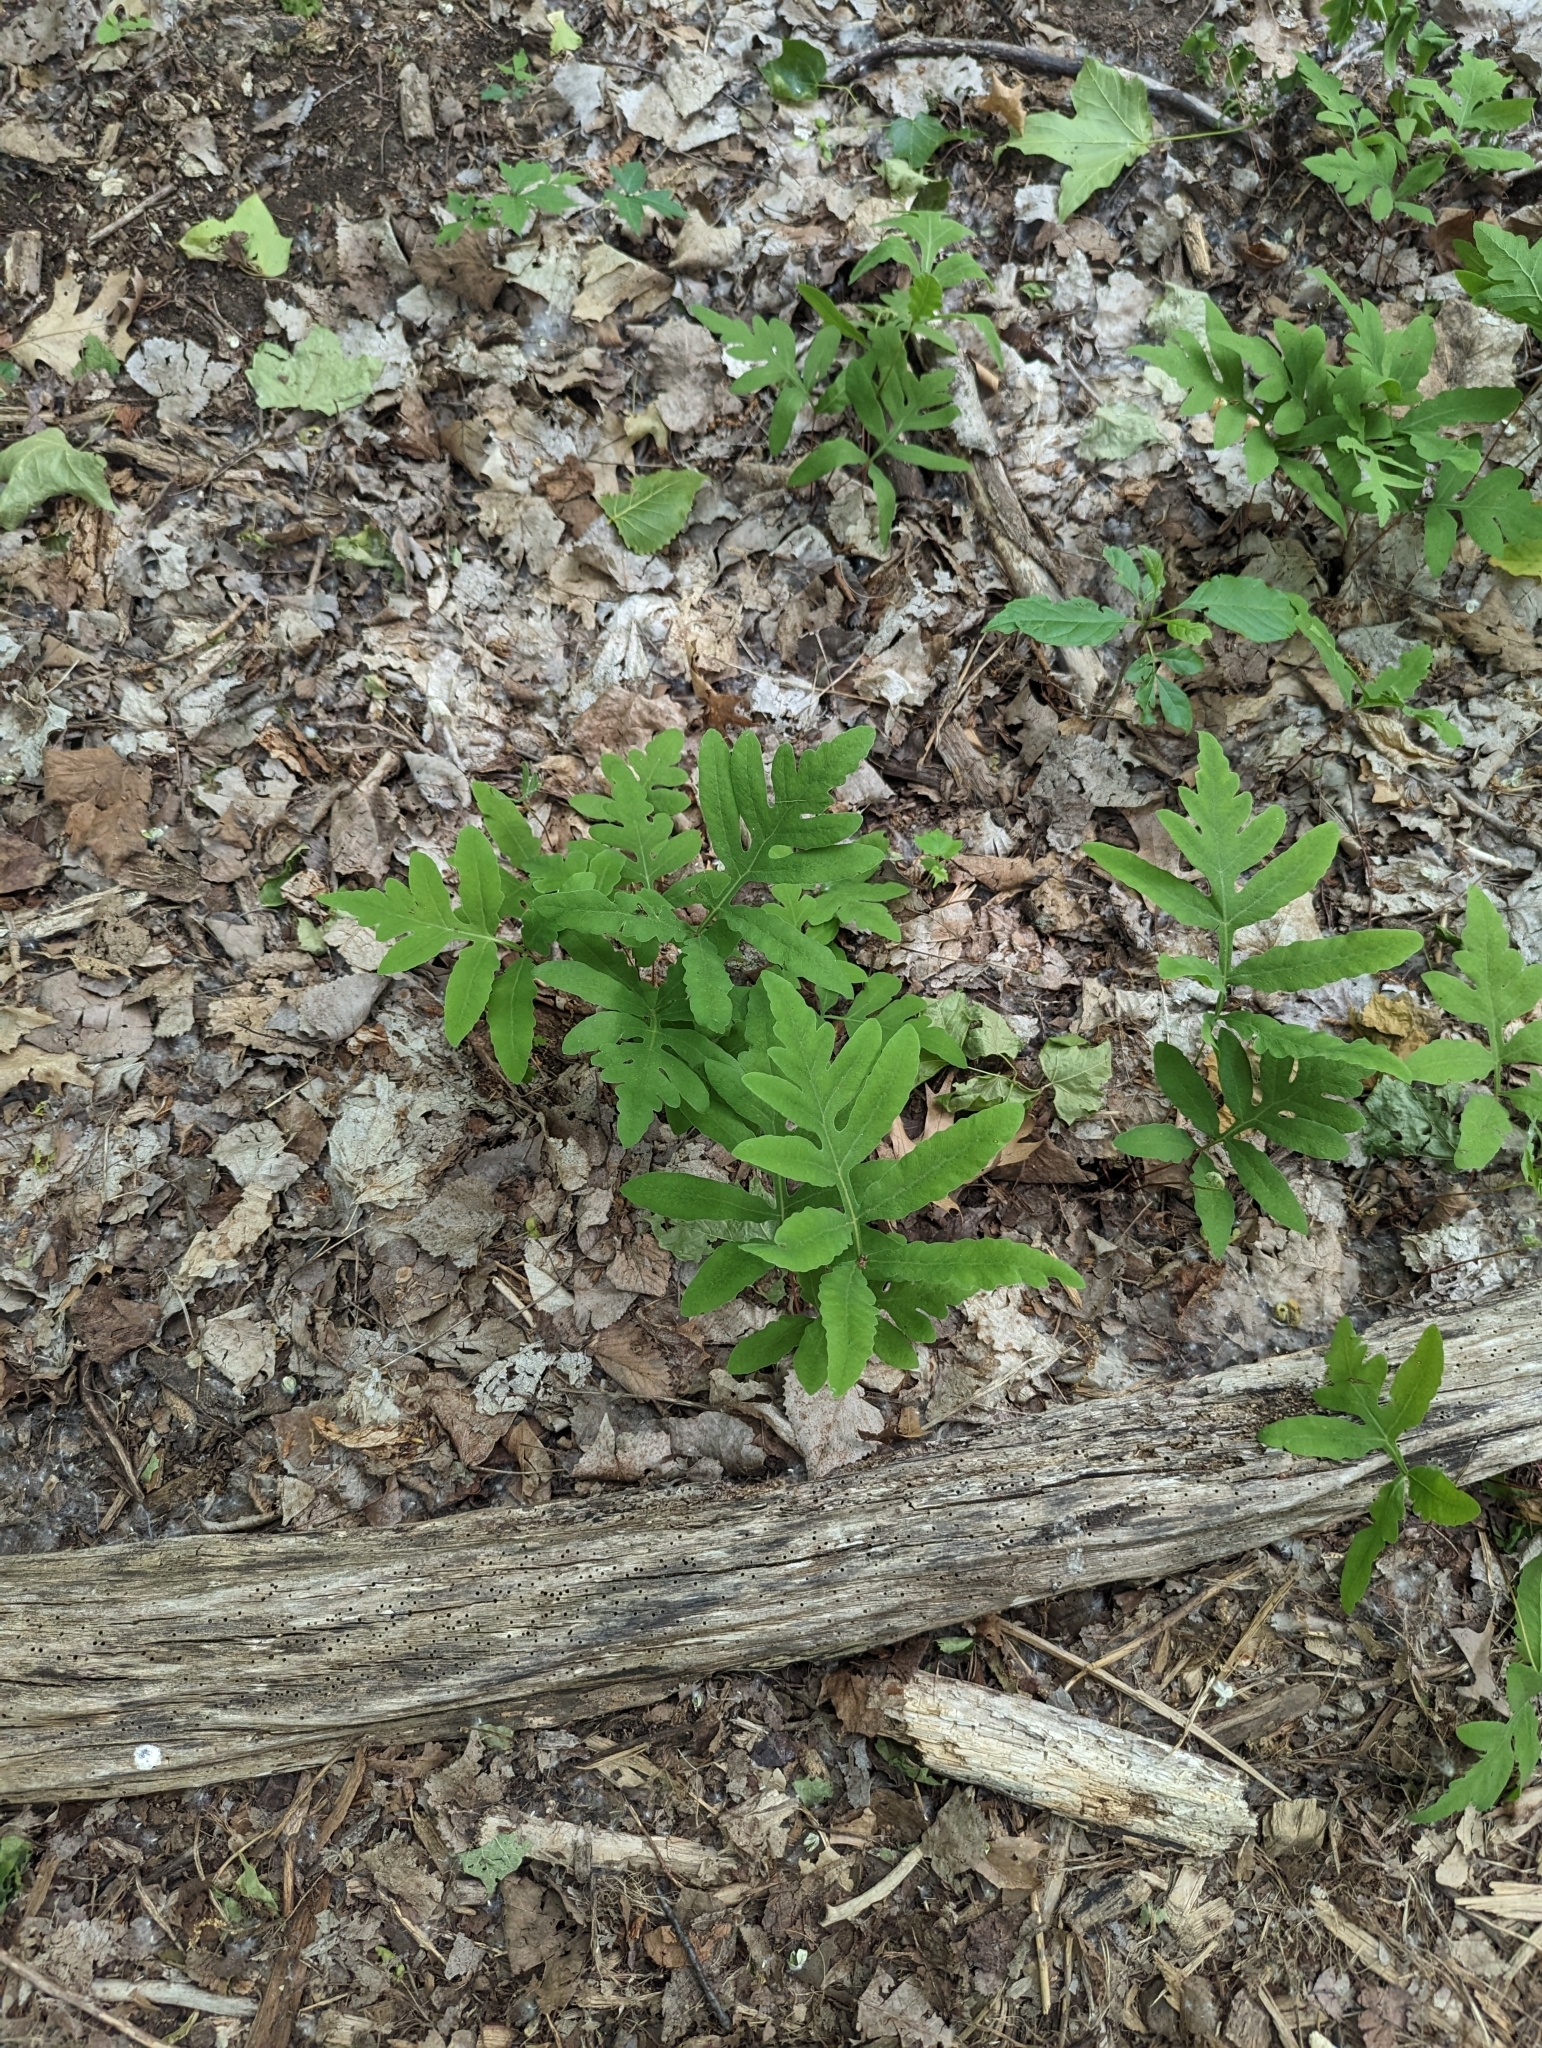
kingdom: Plantae
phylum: Tracheophyta
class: Polypodiopsida
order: Polypodiales
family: Onocleaceae
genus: Onoclea
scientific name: Onoclea sensibilis
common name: Sensitive fern
